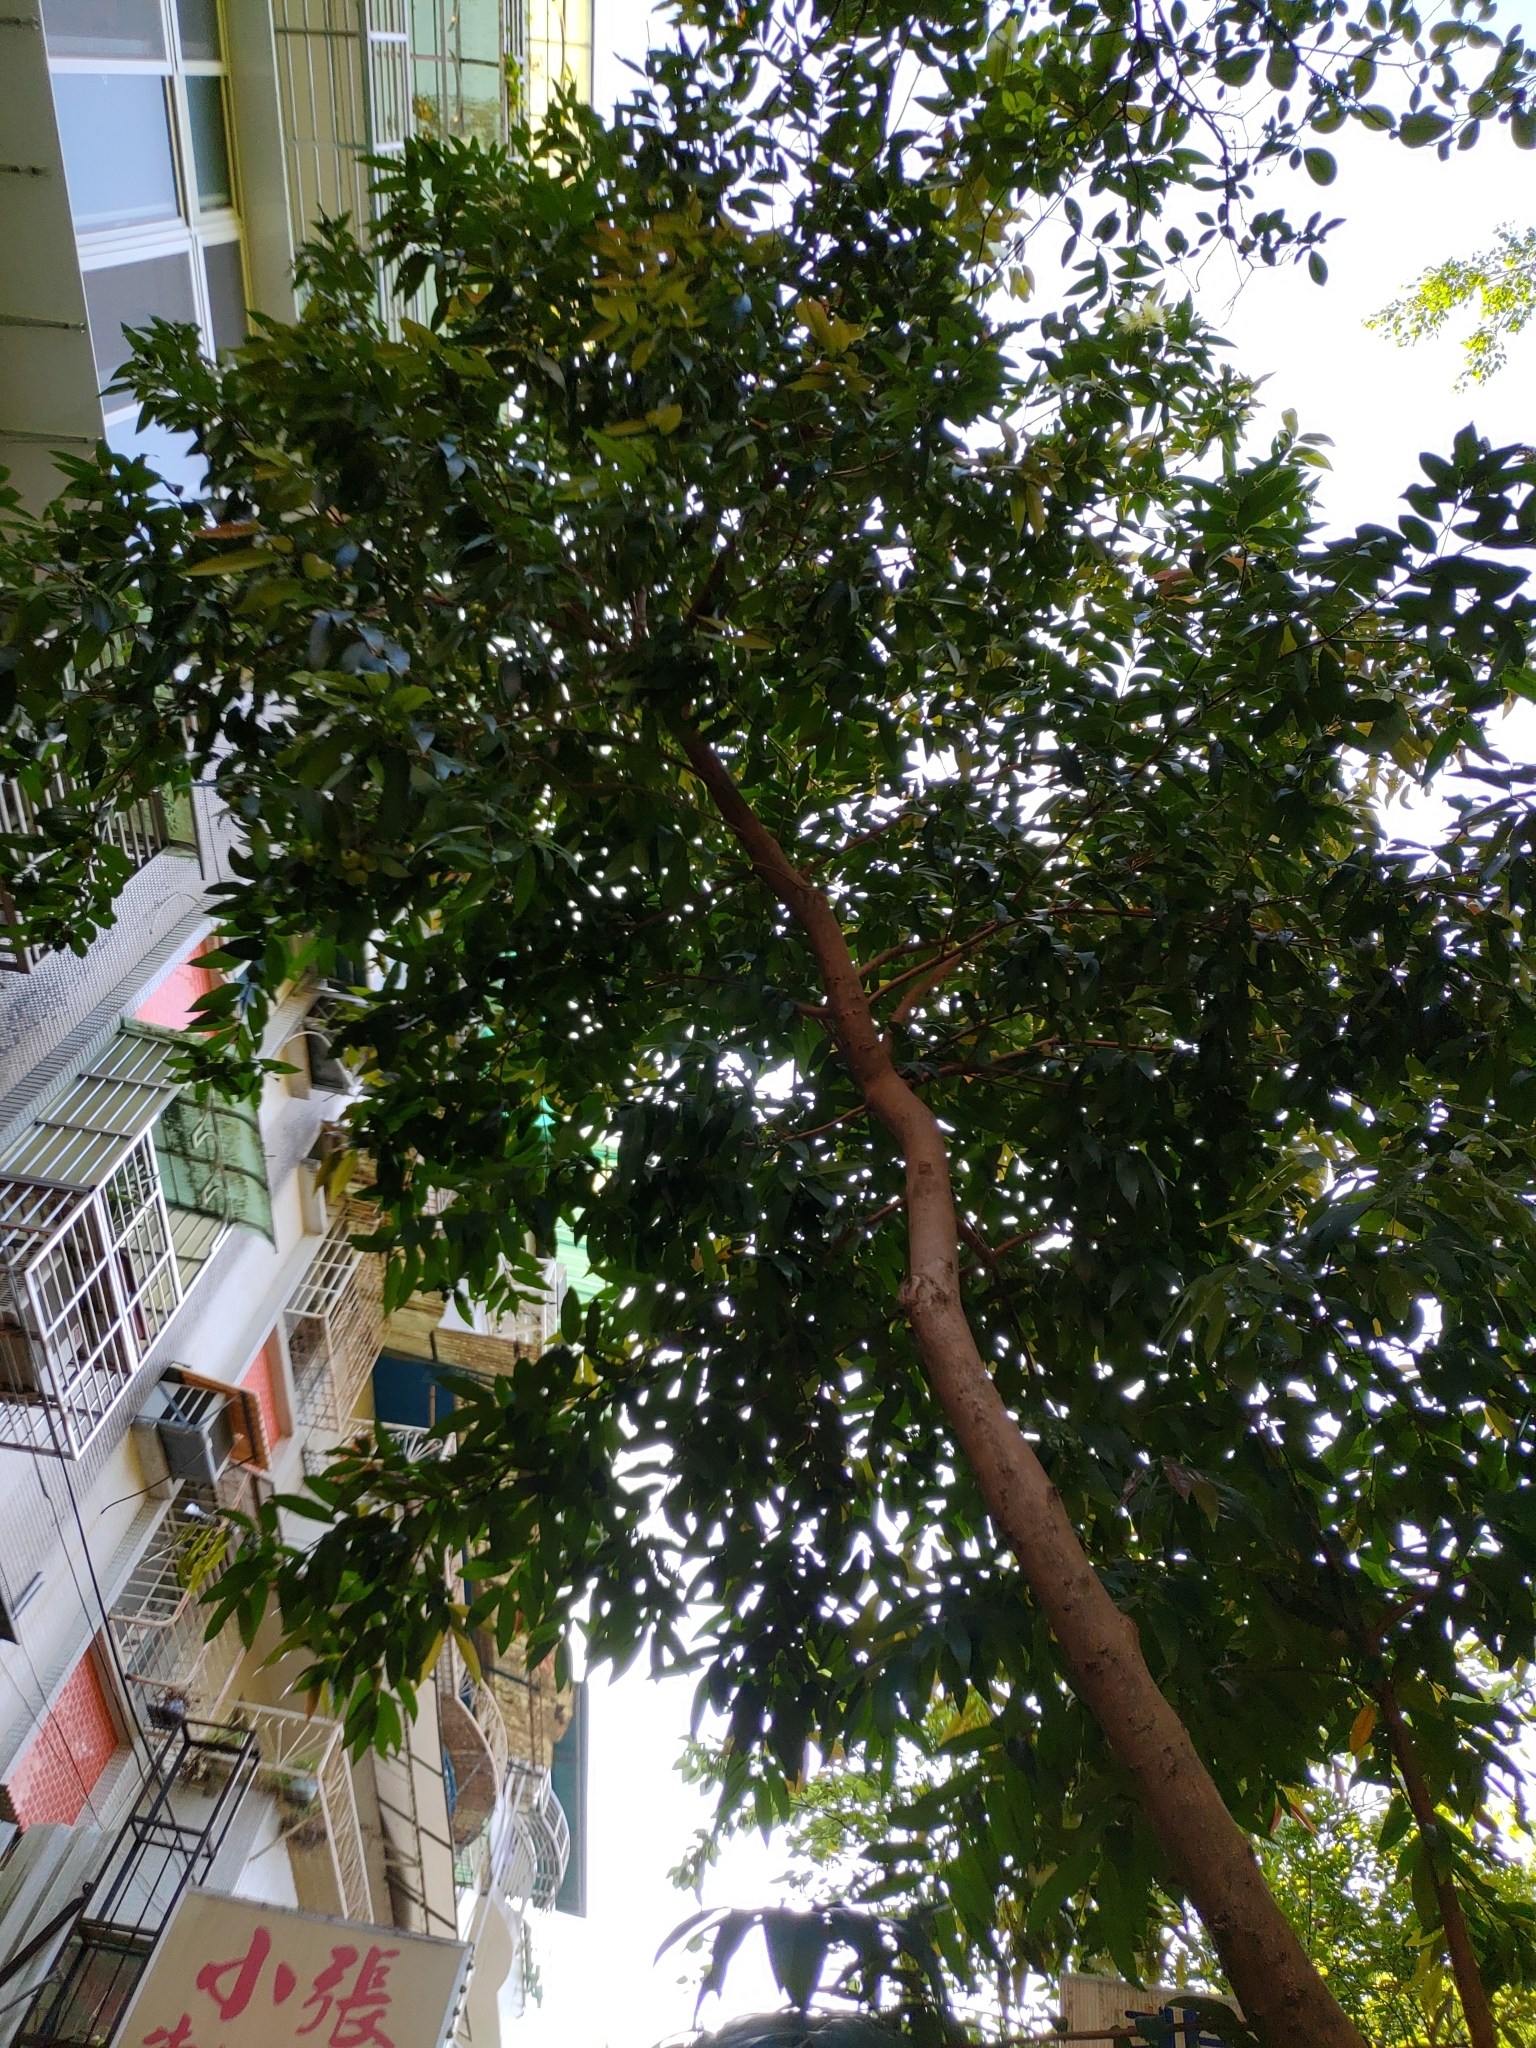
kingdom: Plantae
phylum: Tracheophyta
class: Magnoliopsida
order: Myrtales
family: Myrtaceae
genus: Syzygium
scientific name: Syzygium jambos
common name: Malabar plum
